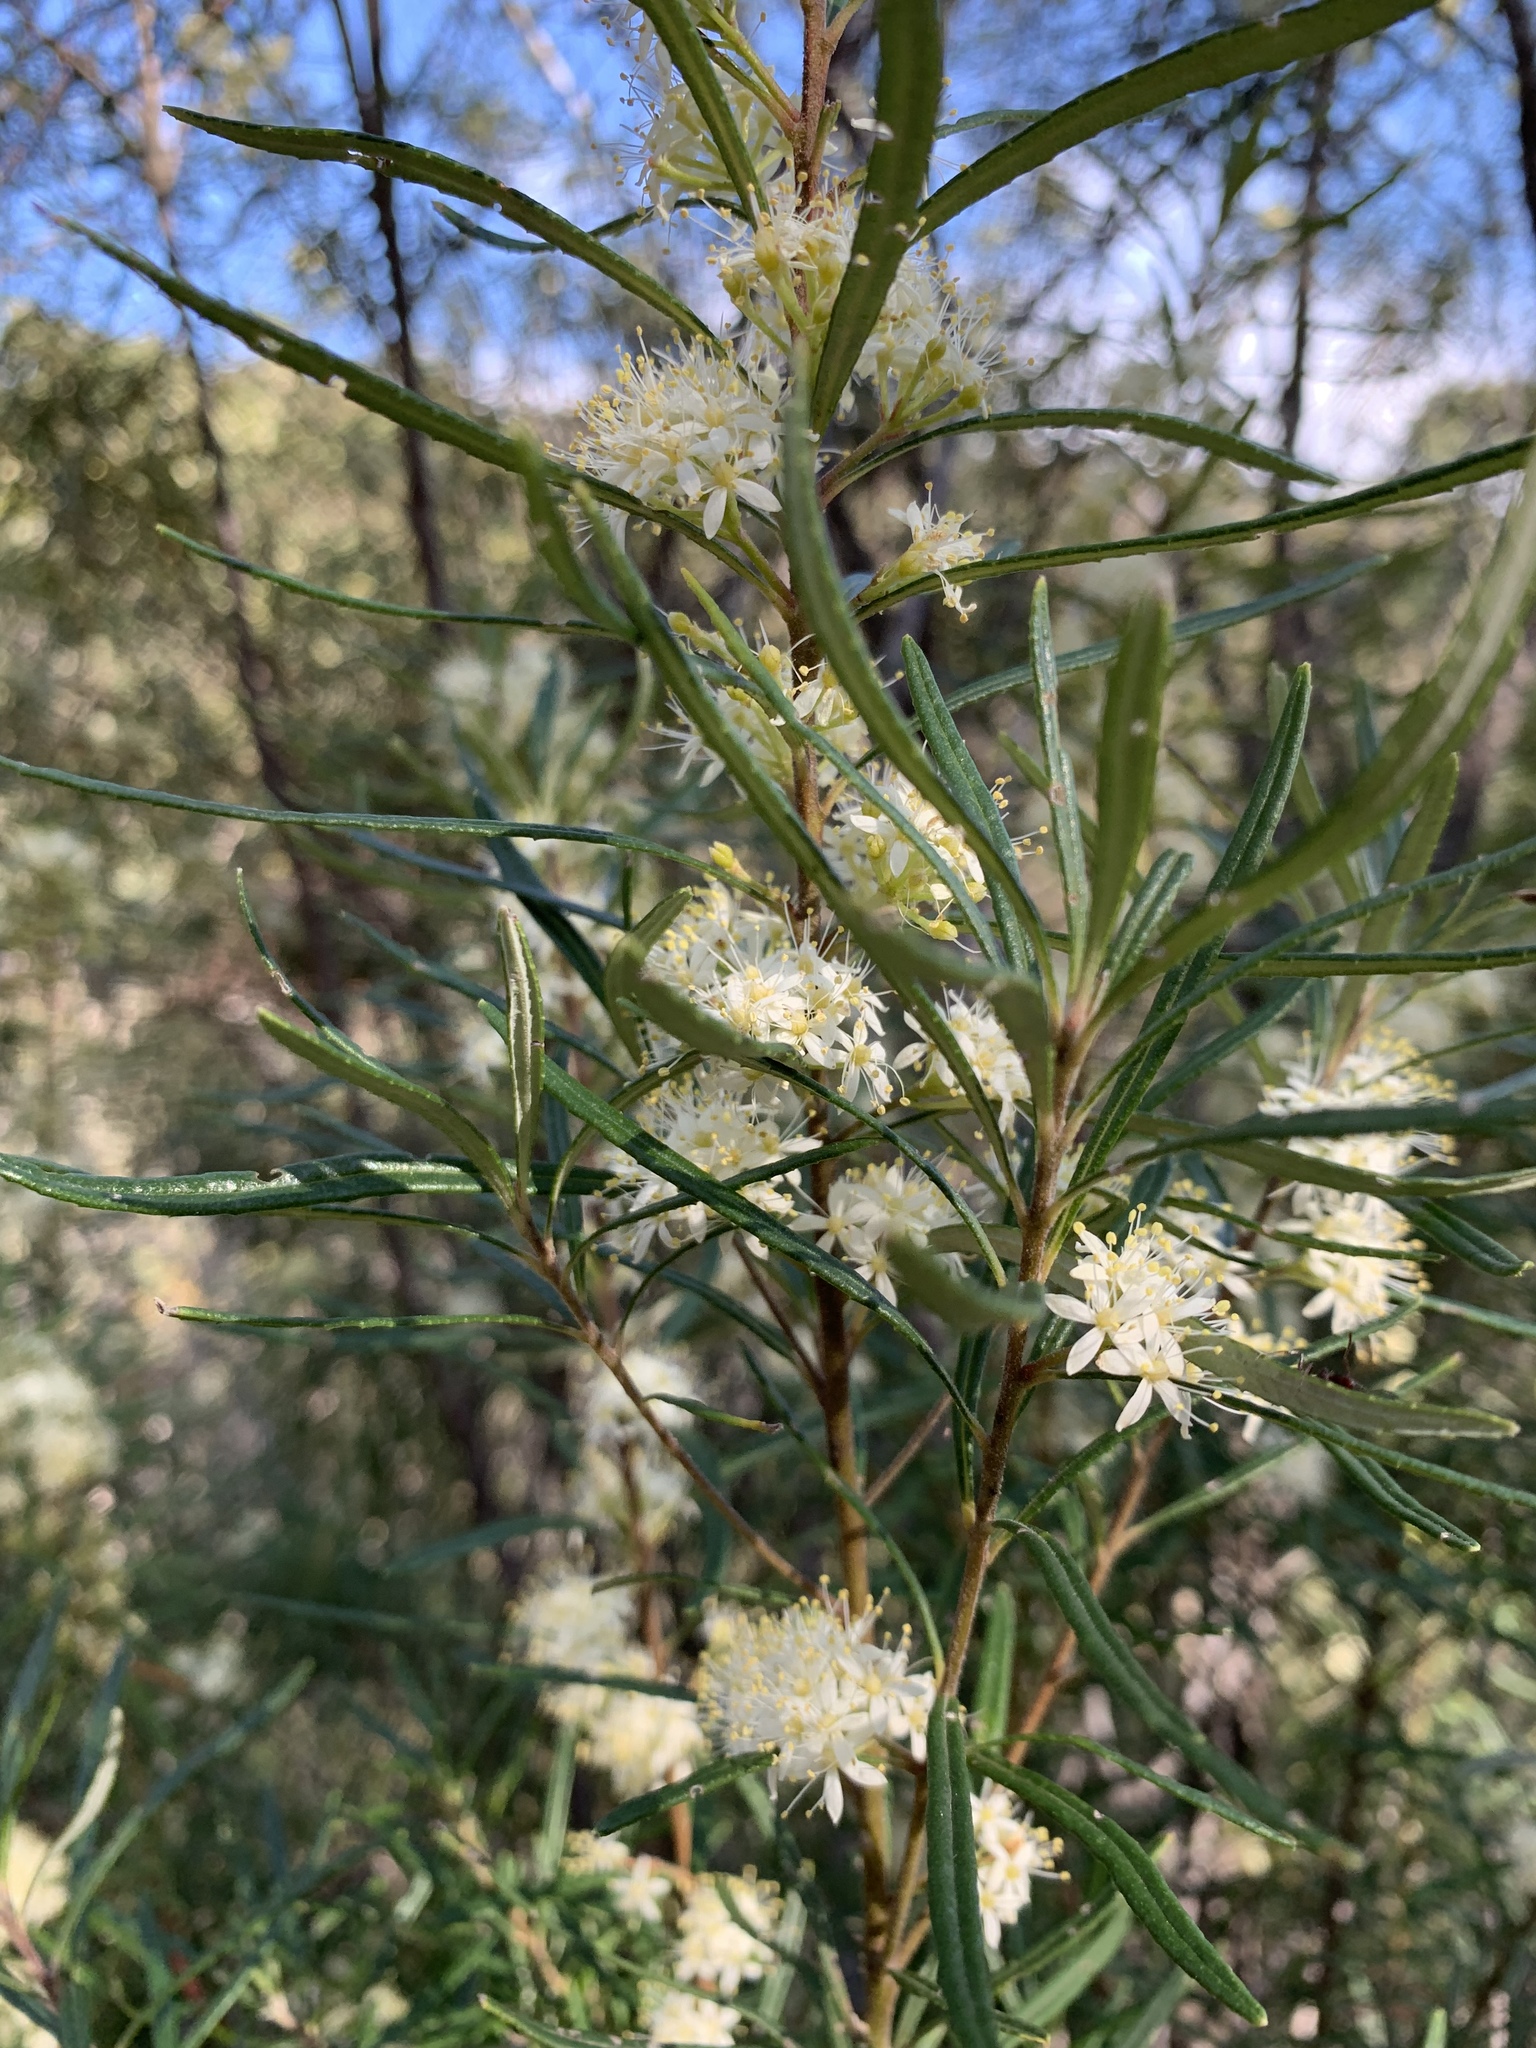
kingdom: Plantae
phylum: Tracheophyta
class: Magnoliopsida
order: Sapindales
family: Rutaceae
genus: Leionema
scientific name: Leionema dentatum
